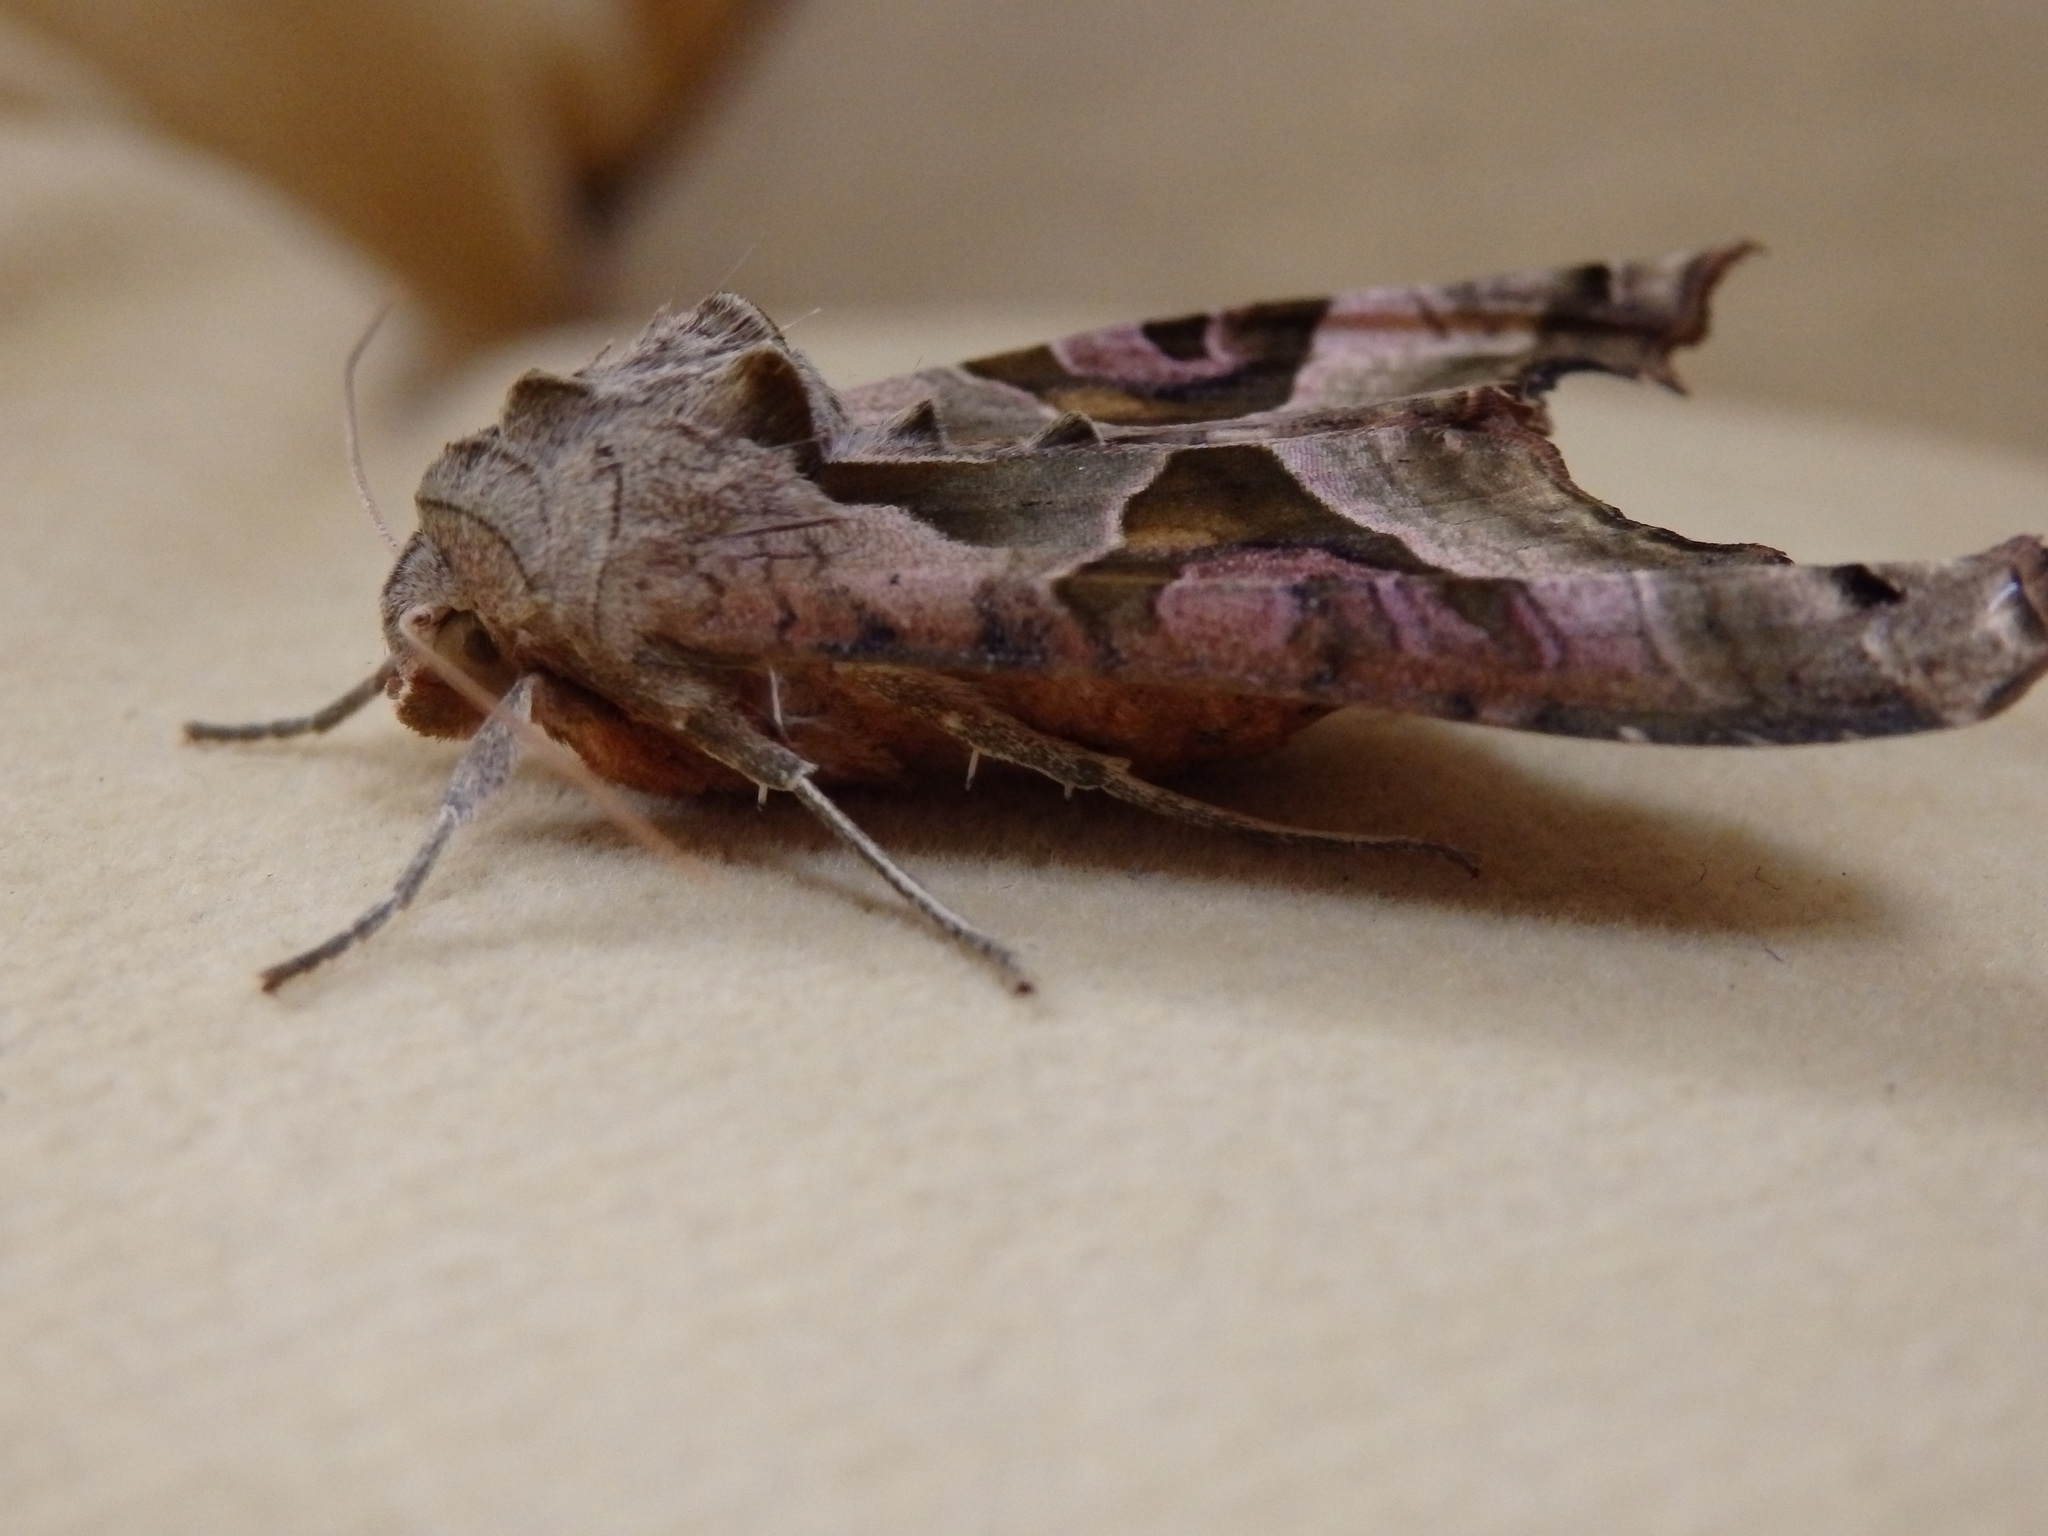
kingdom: Animalia
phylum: Arthropoda
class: Insecta
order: Lepidoptera
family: Noctuidae
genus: Phlogophora
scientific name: Phlogophora meticulosa
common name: Angle shades
